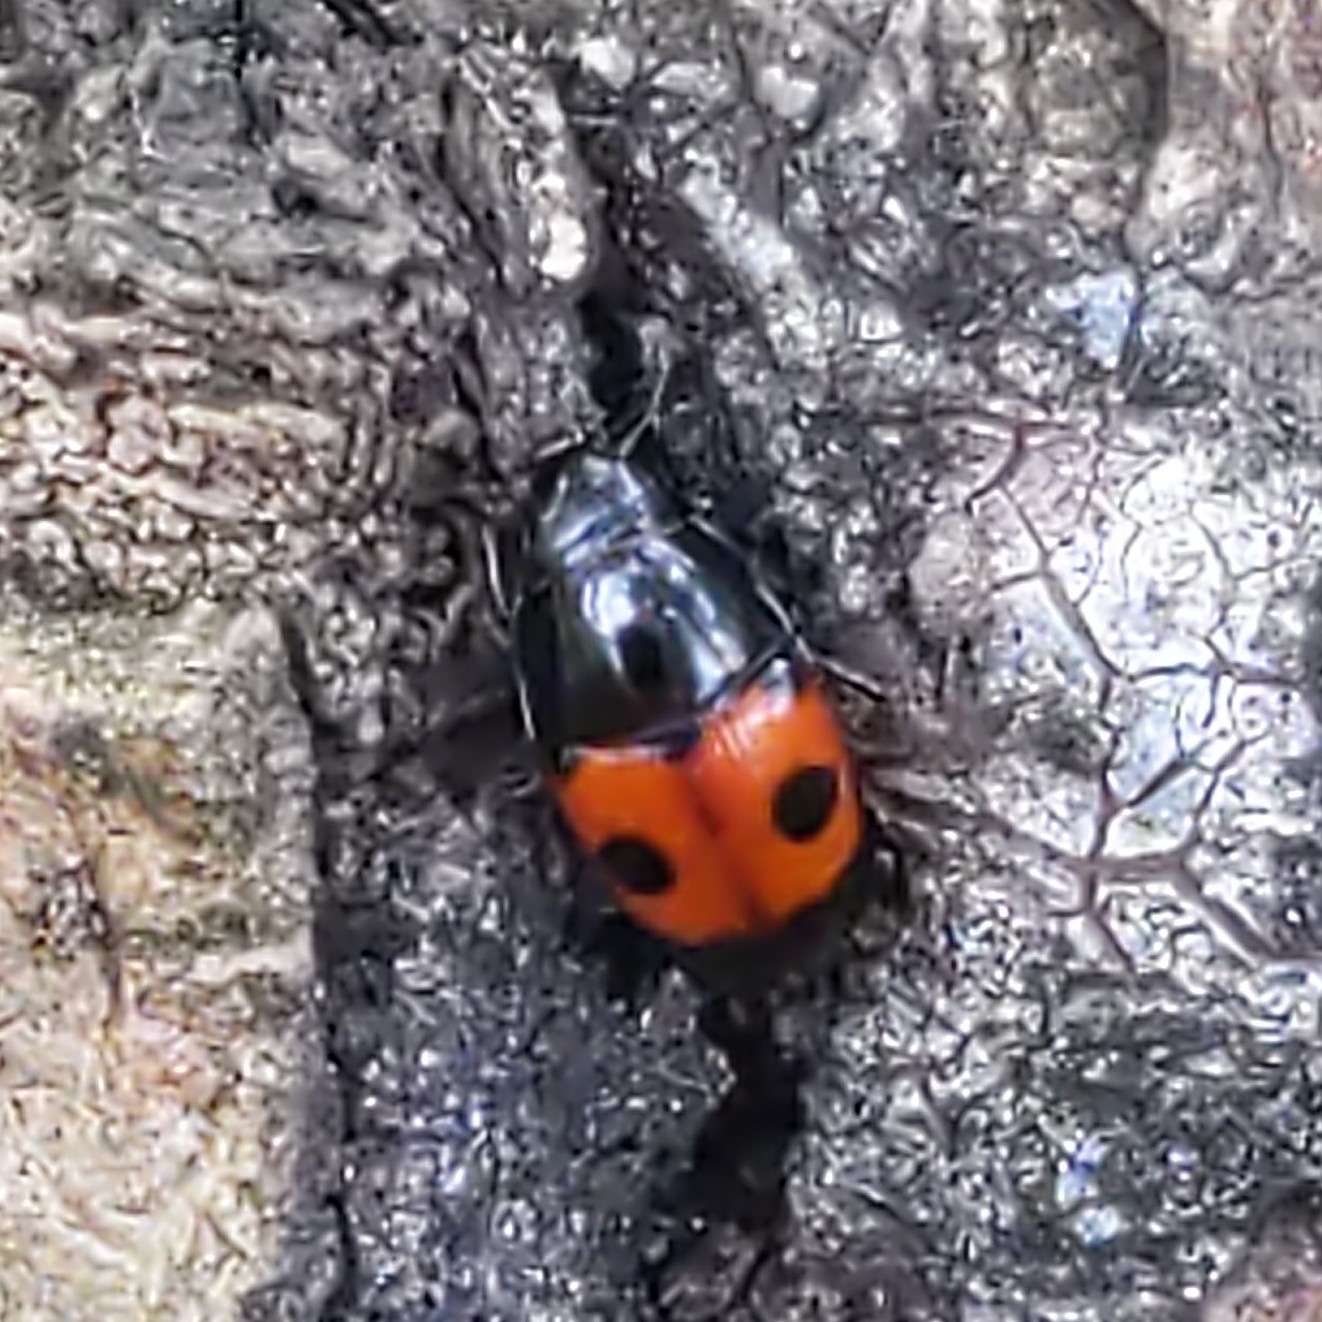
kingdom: Animalia
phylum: Arthropoda
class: Insecta
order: Coleoptera
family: Nitidulidae
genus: Glischrochilus
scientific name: Glischrochilus sanguinolentus
